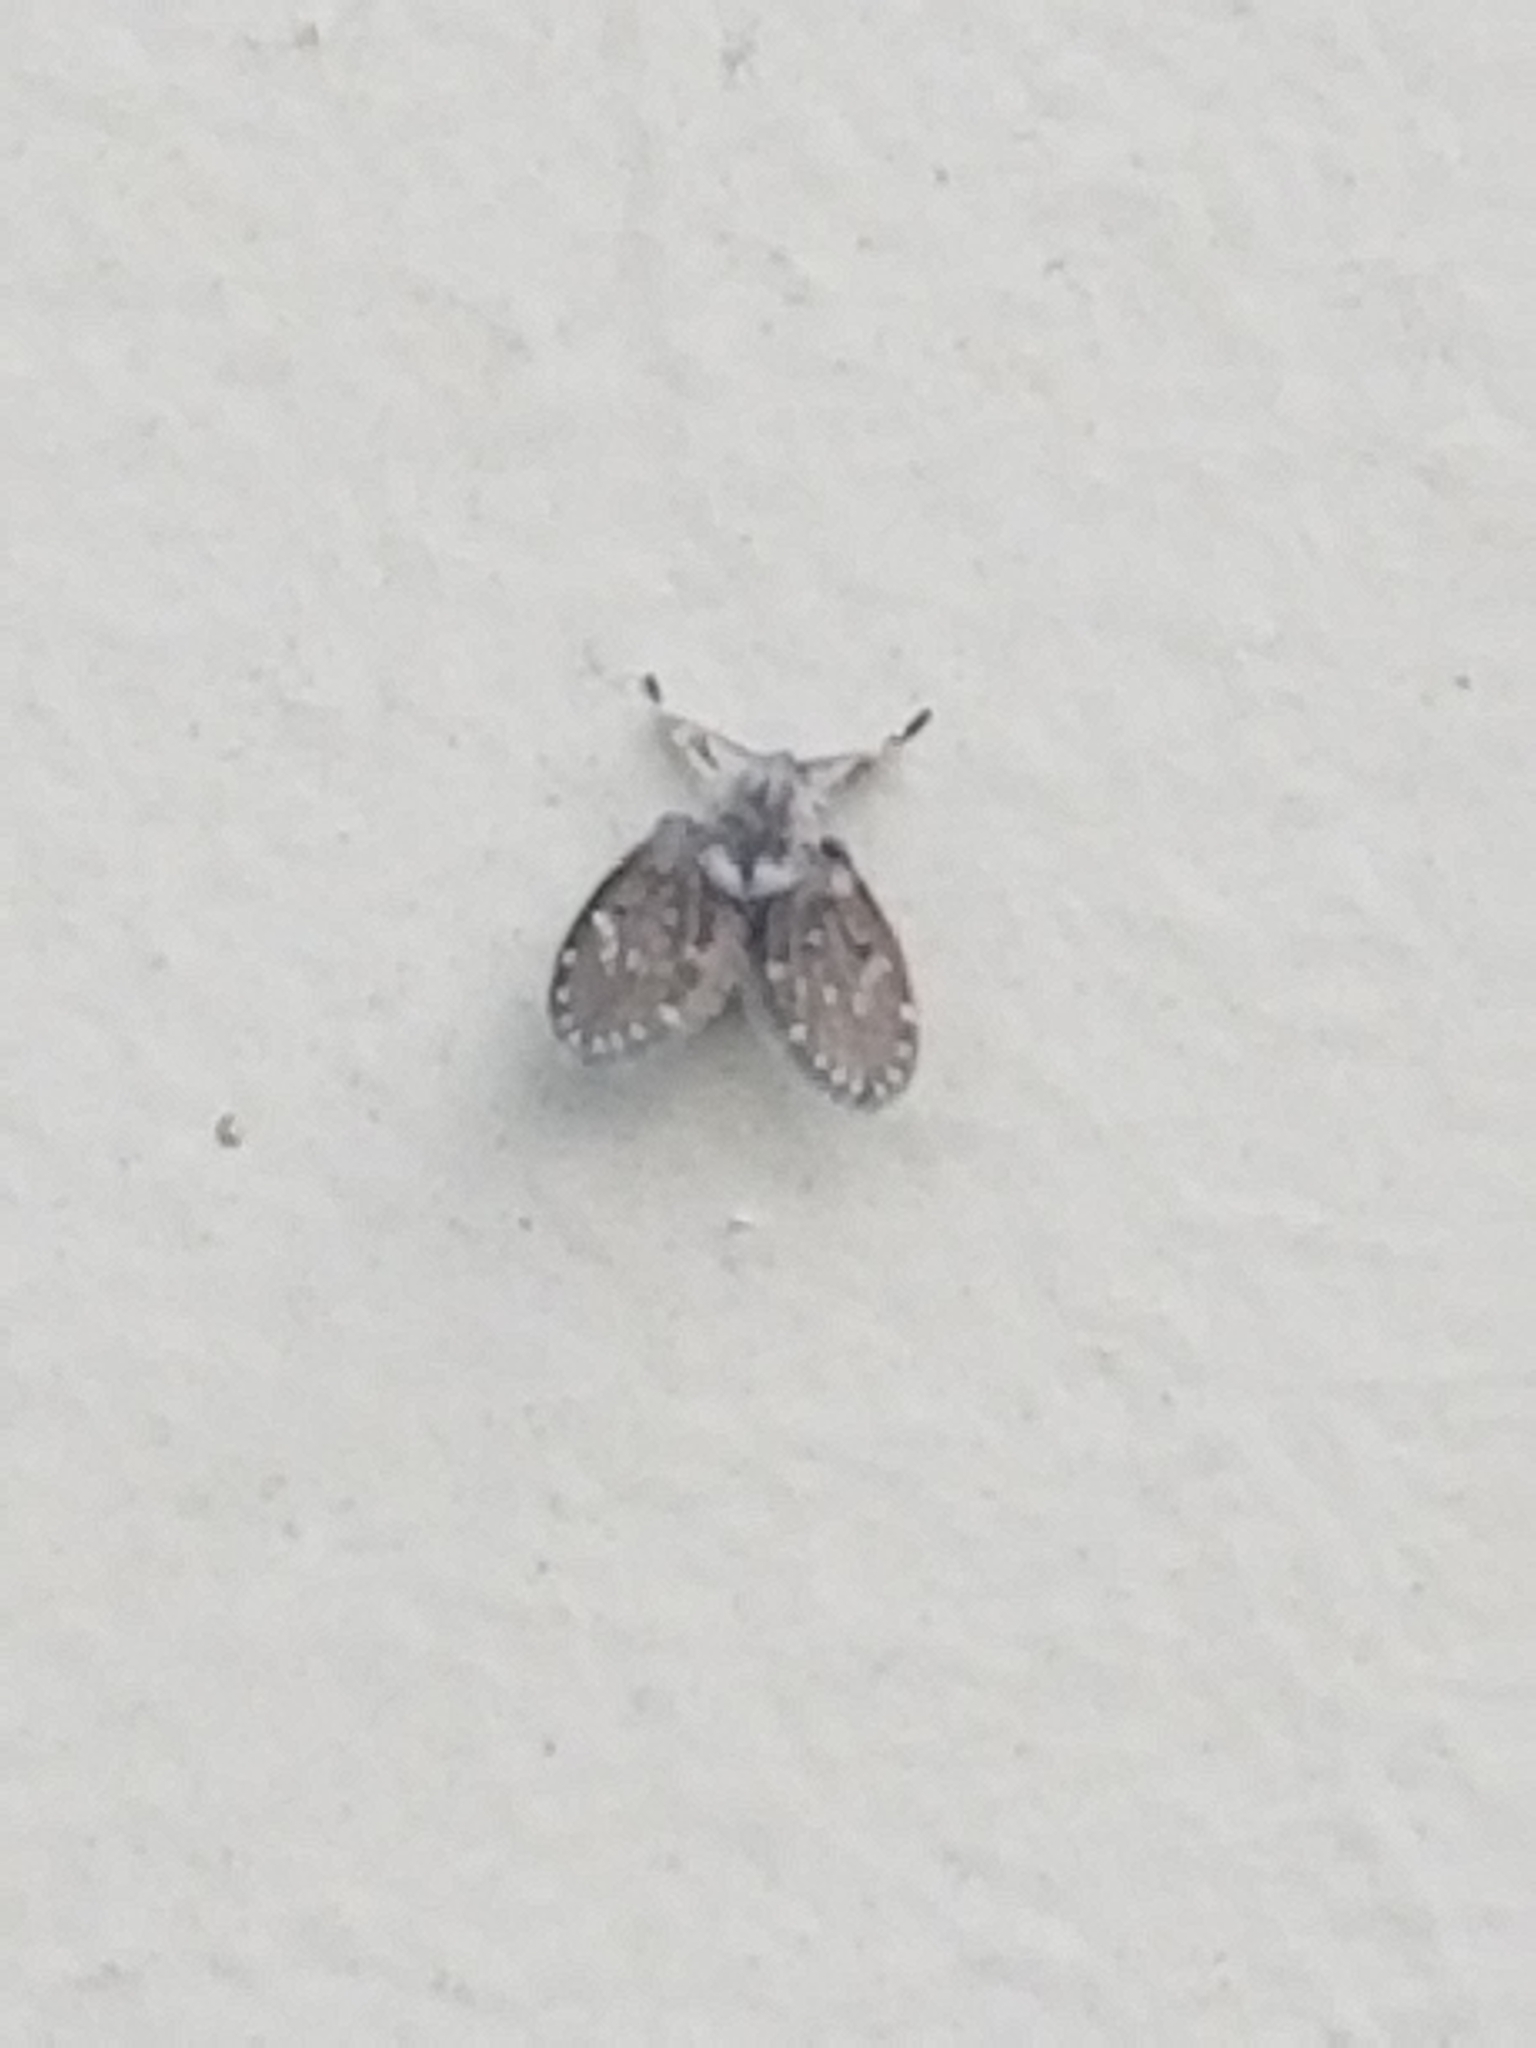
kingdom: Animalia
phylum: Arthropoda
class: Insecta
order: Diptera
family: Psychodidae
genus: Clogmia
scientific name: Clogmia albipunctatus
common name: White-spotted moth fly
